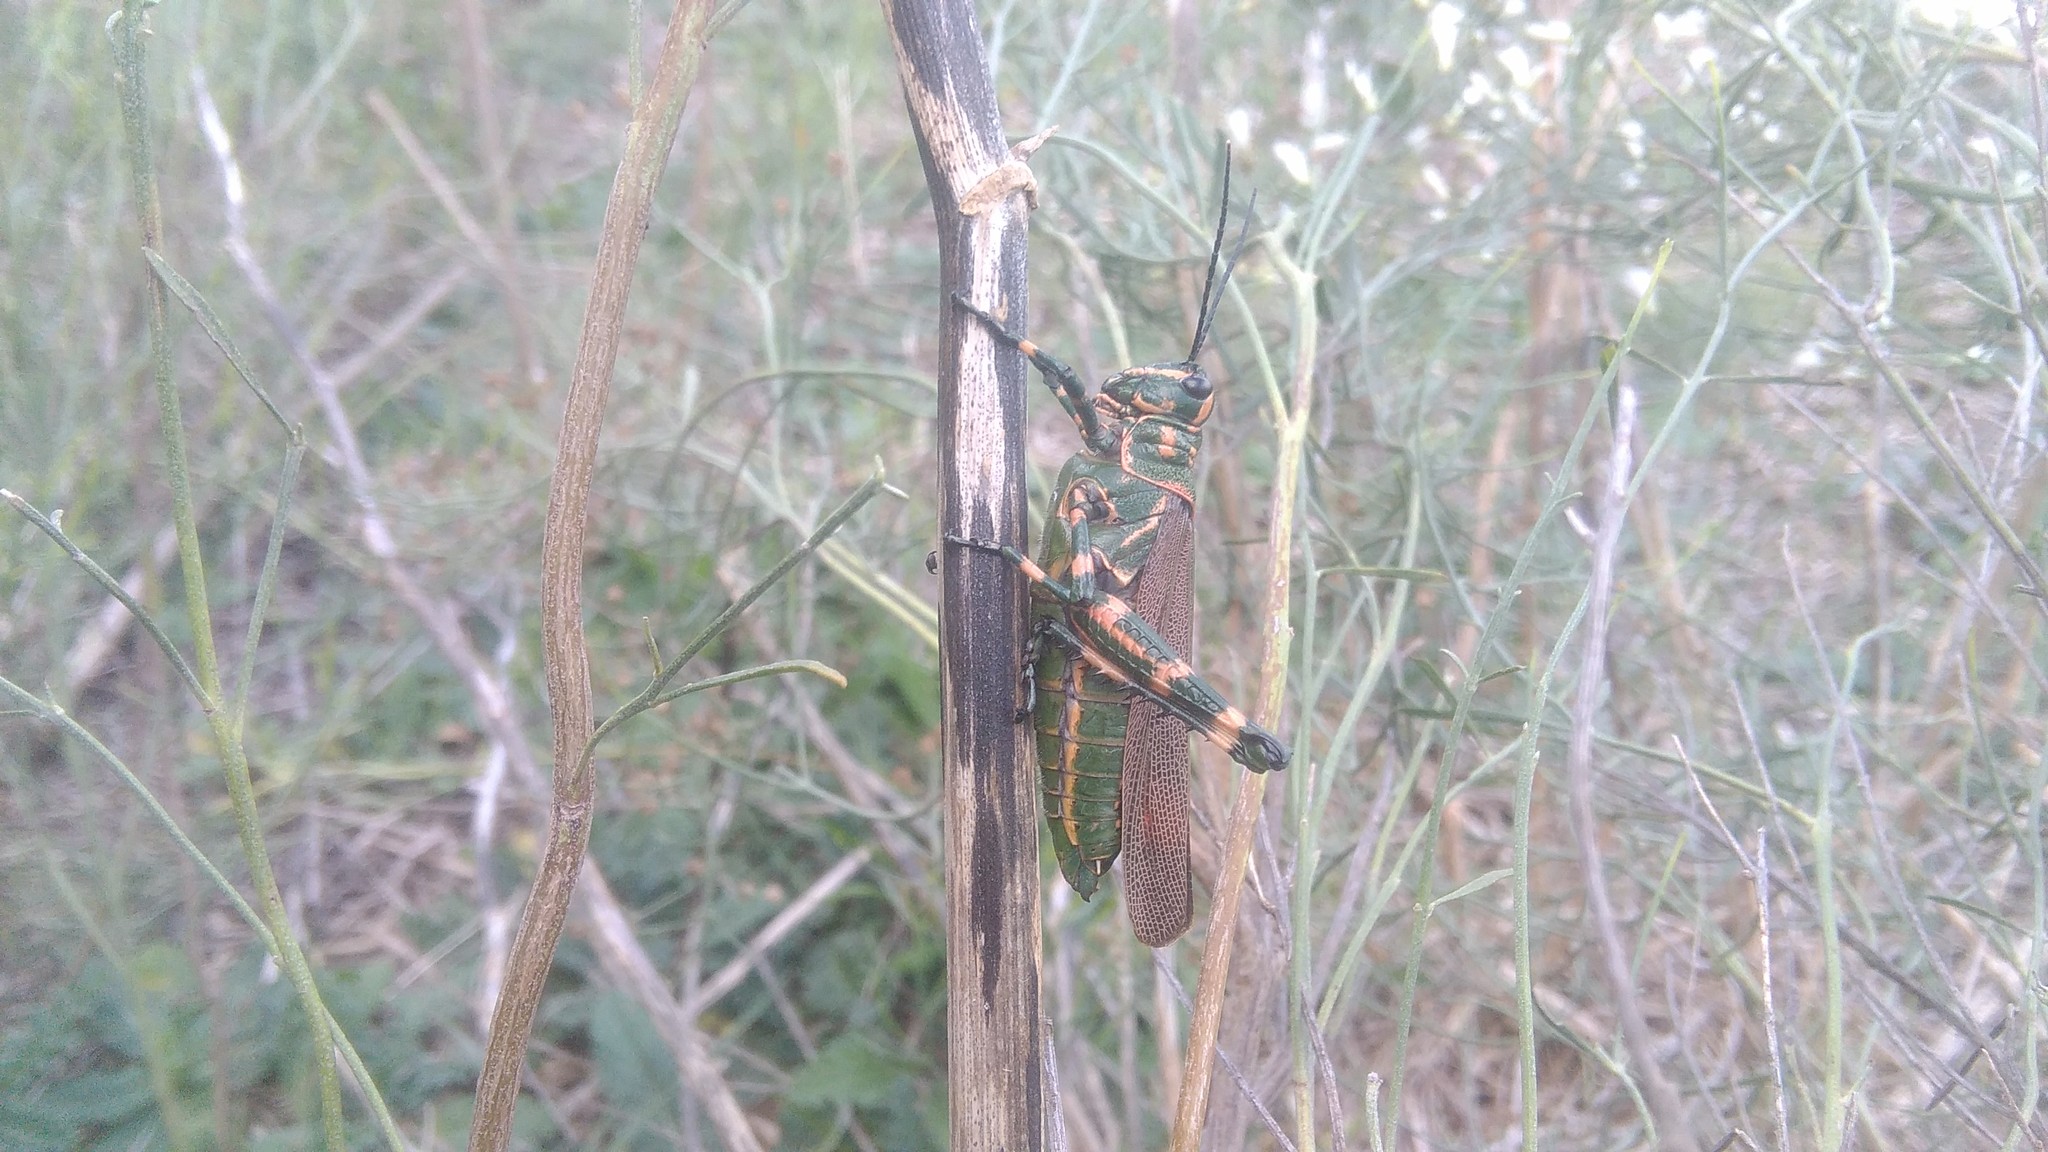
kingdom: Animalia
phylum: Arthropoda
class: Insecta
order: Orthoptera
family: Romaleidae
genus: Chromacris
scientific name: Chromacris speciosa
